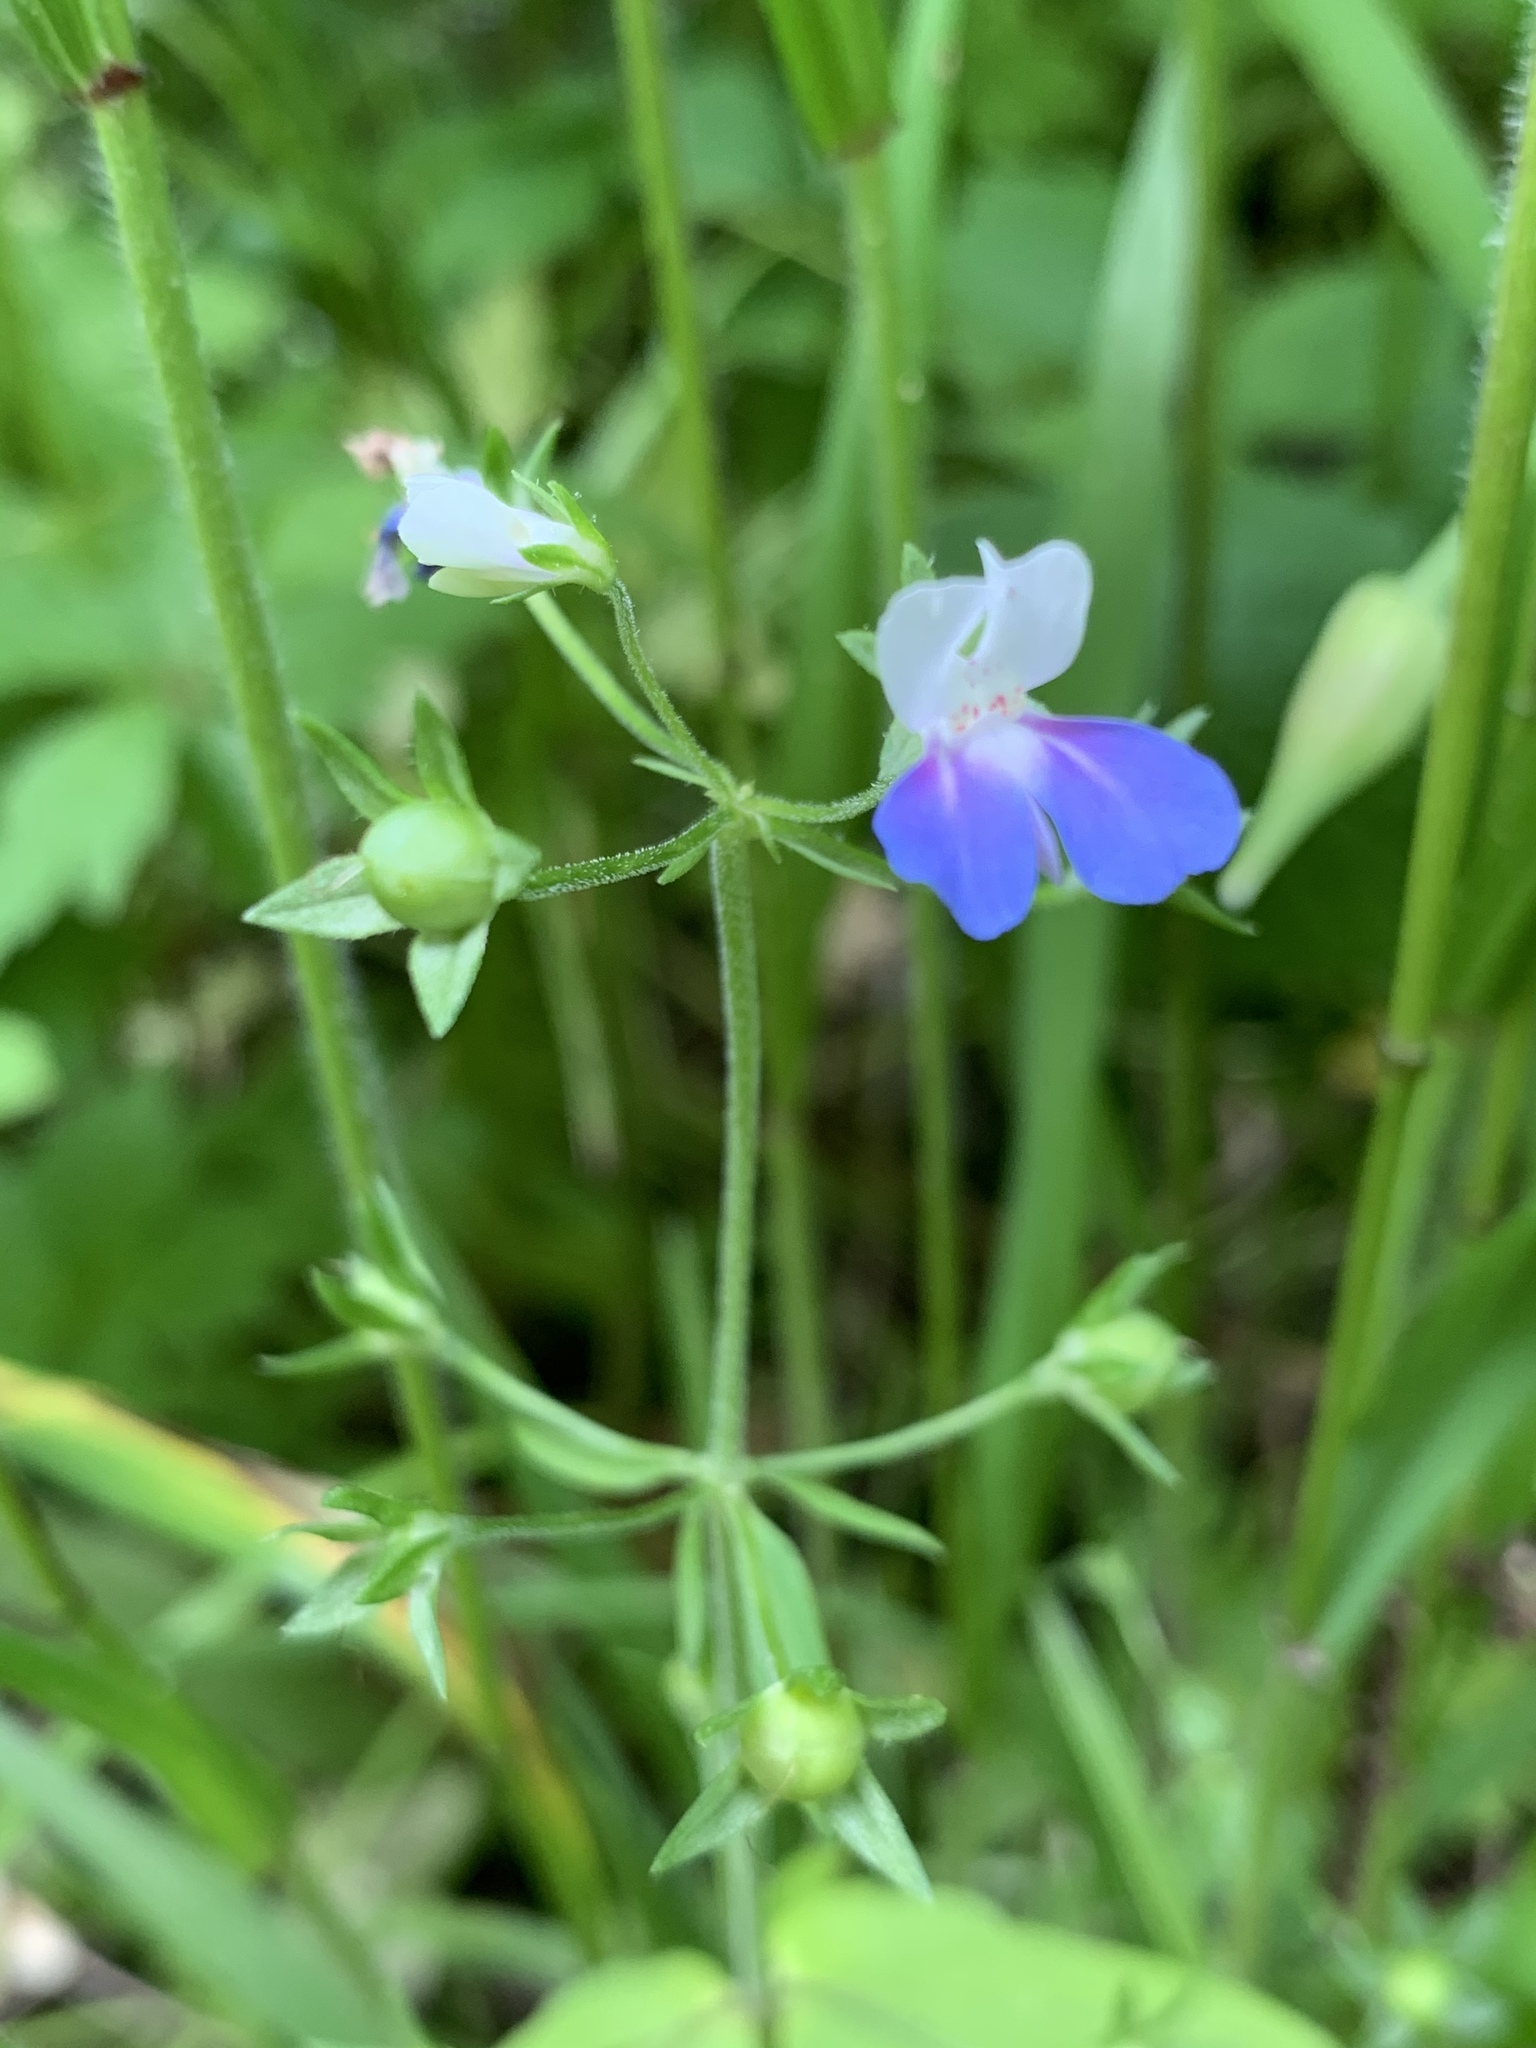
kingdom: Plantae
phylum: Tracheophyta
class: Magnoliopsida
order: Lamiales
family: Plantaginaceae
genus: Collinsia
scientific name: Collinsia verna
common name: Broad-leaved collinsia
